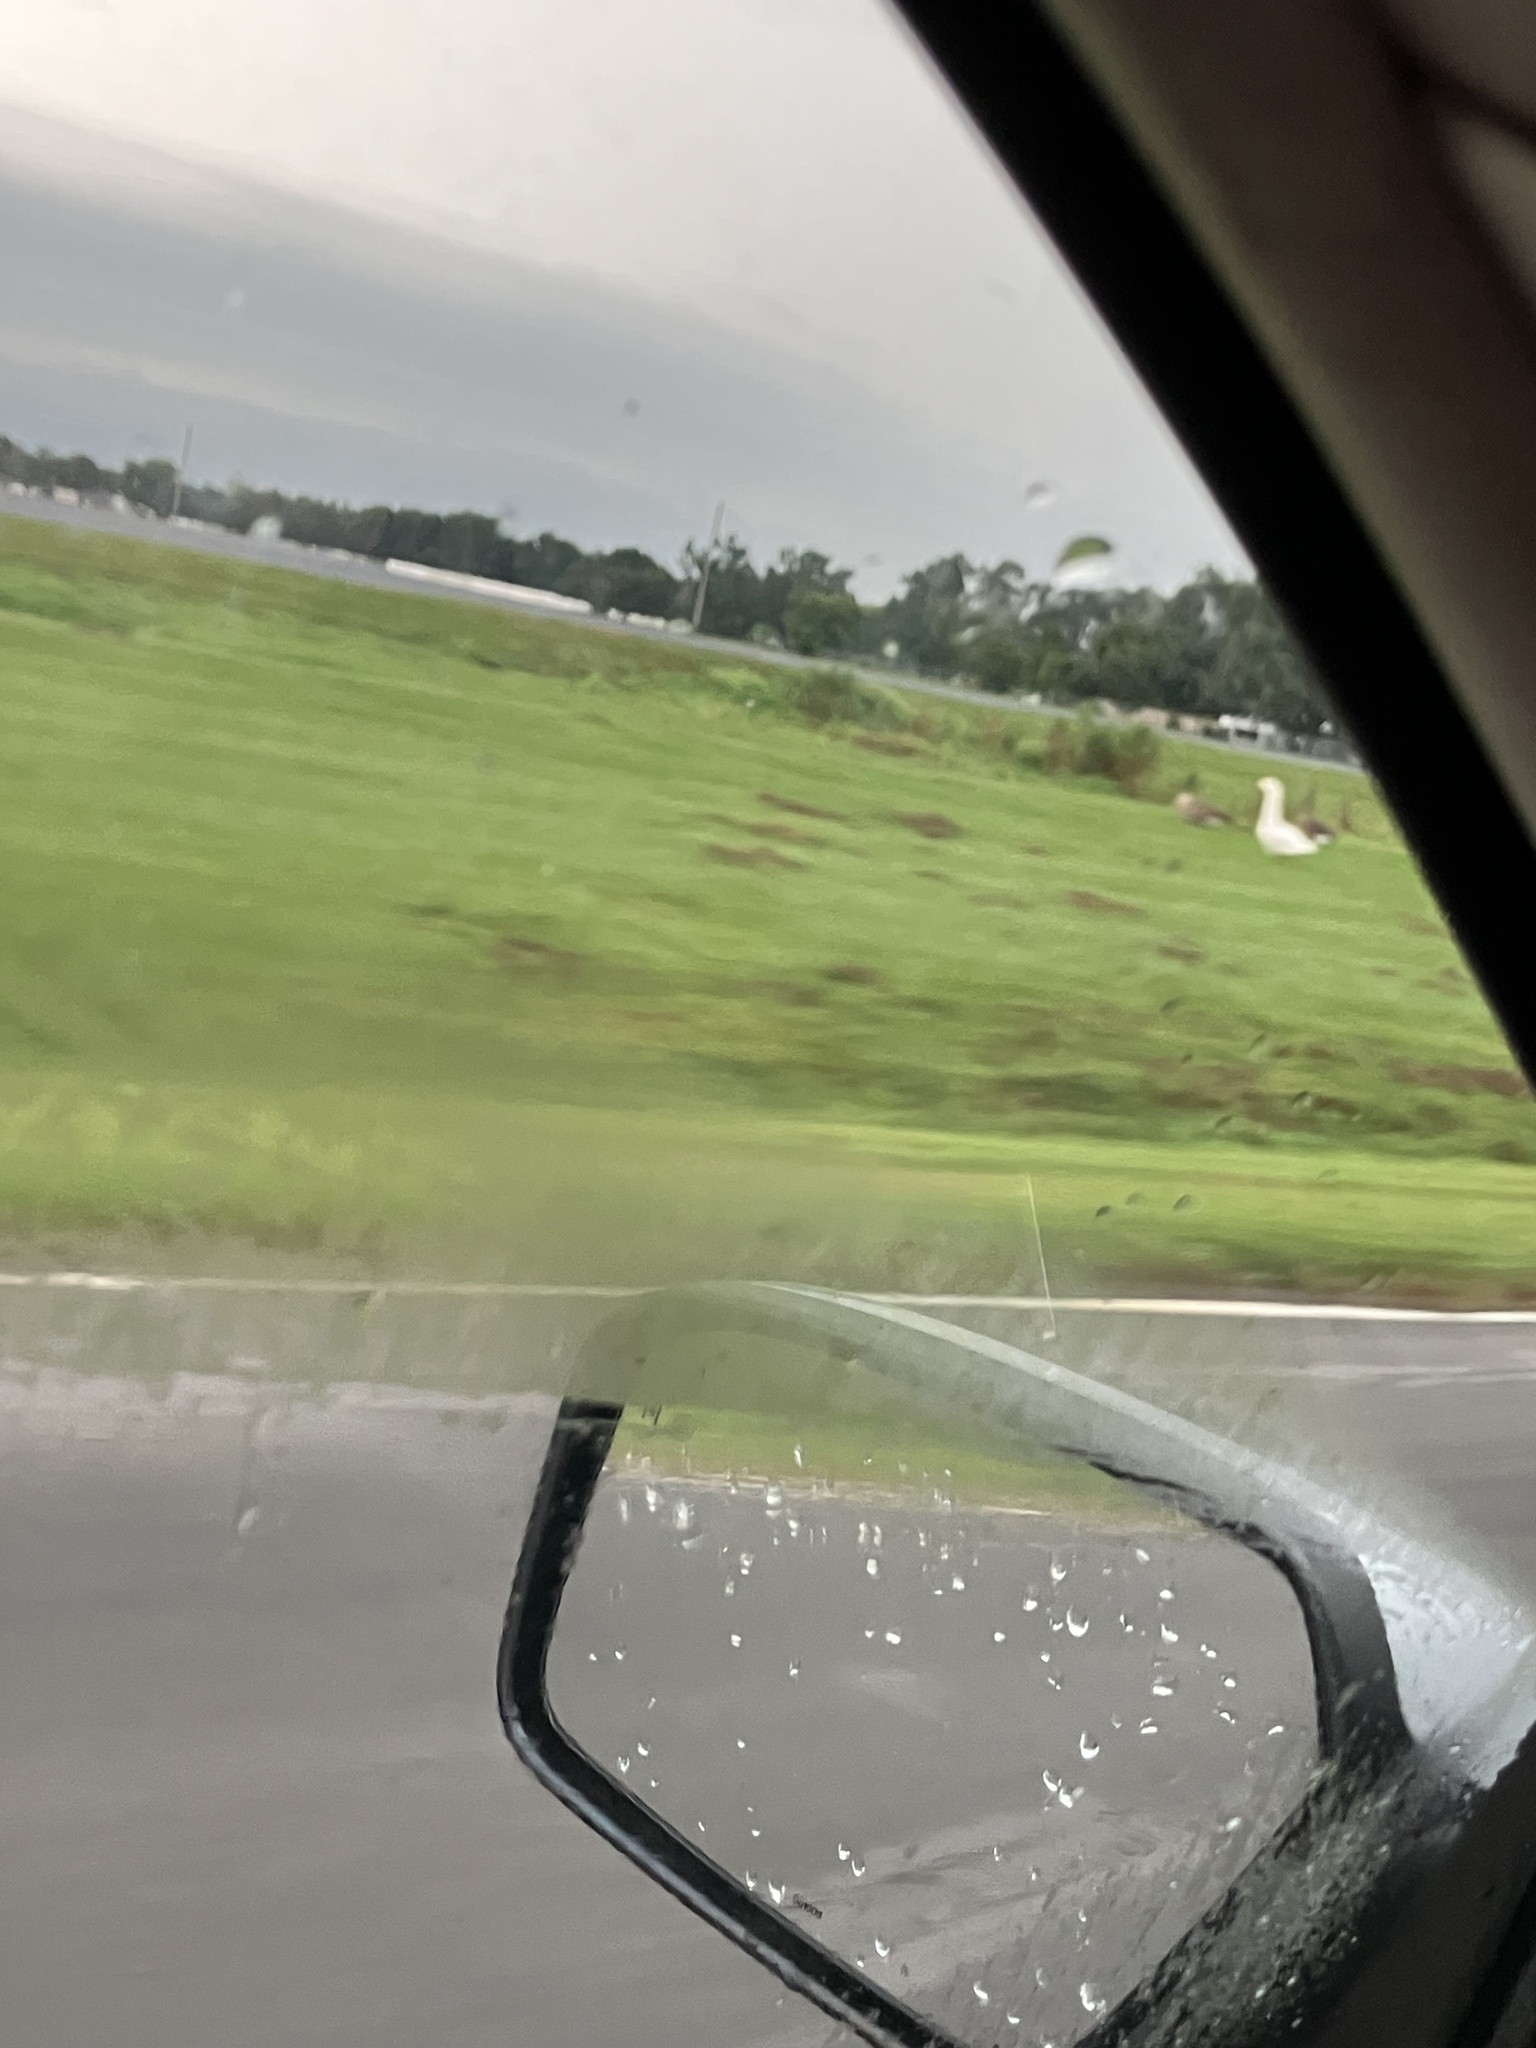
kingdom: Animalia
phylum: Chordata
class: Aves
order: Anseriformes
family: Anatidae
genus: Branta
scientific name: Branta canadensis
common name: Canada goose
